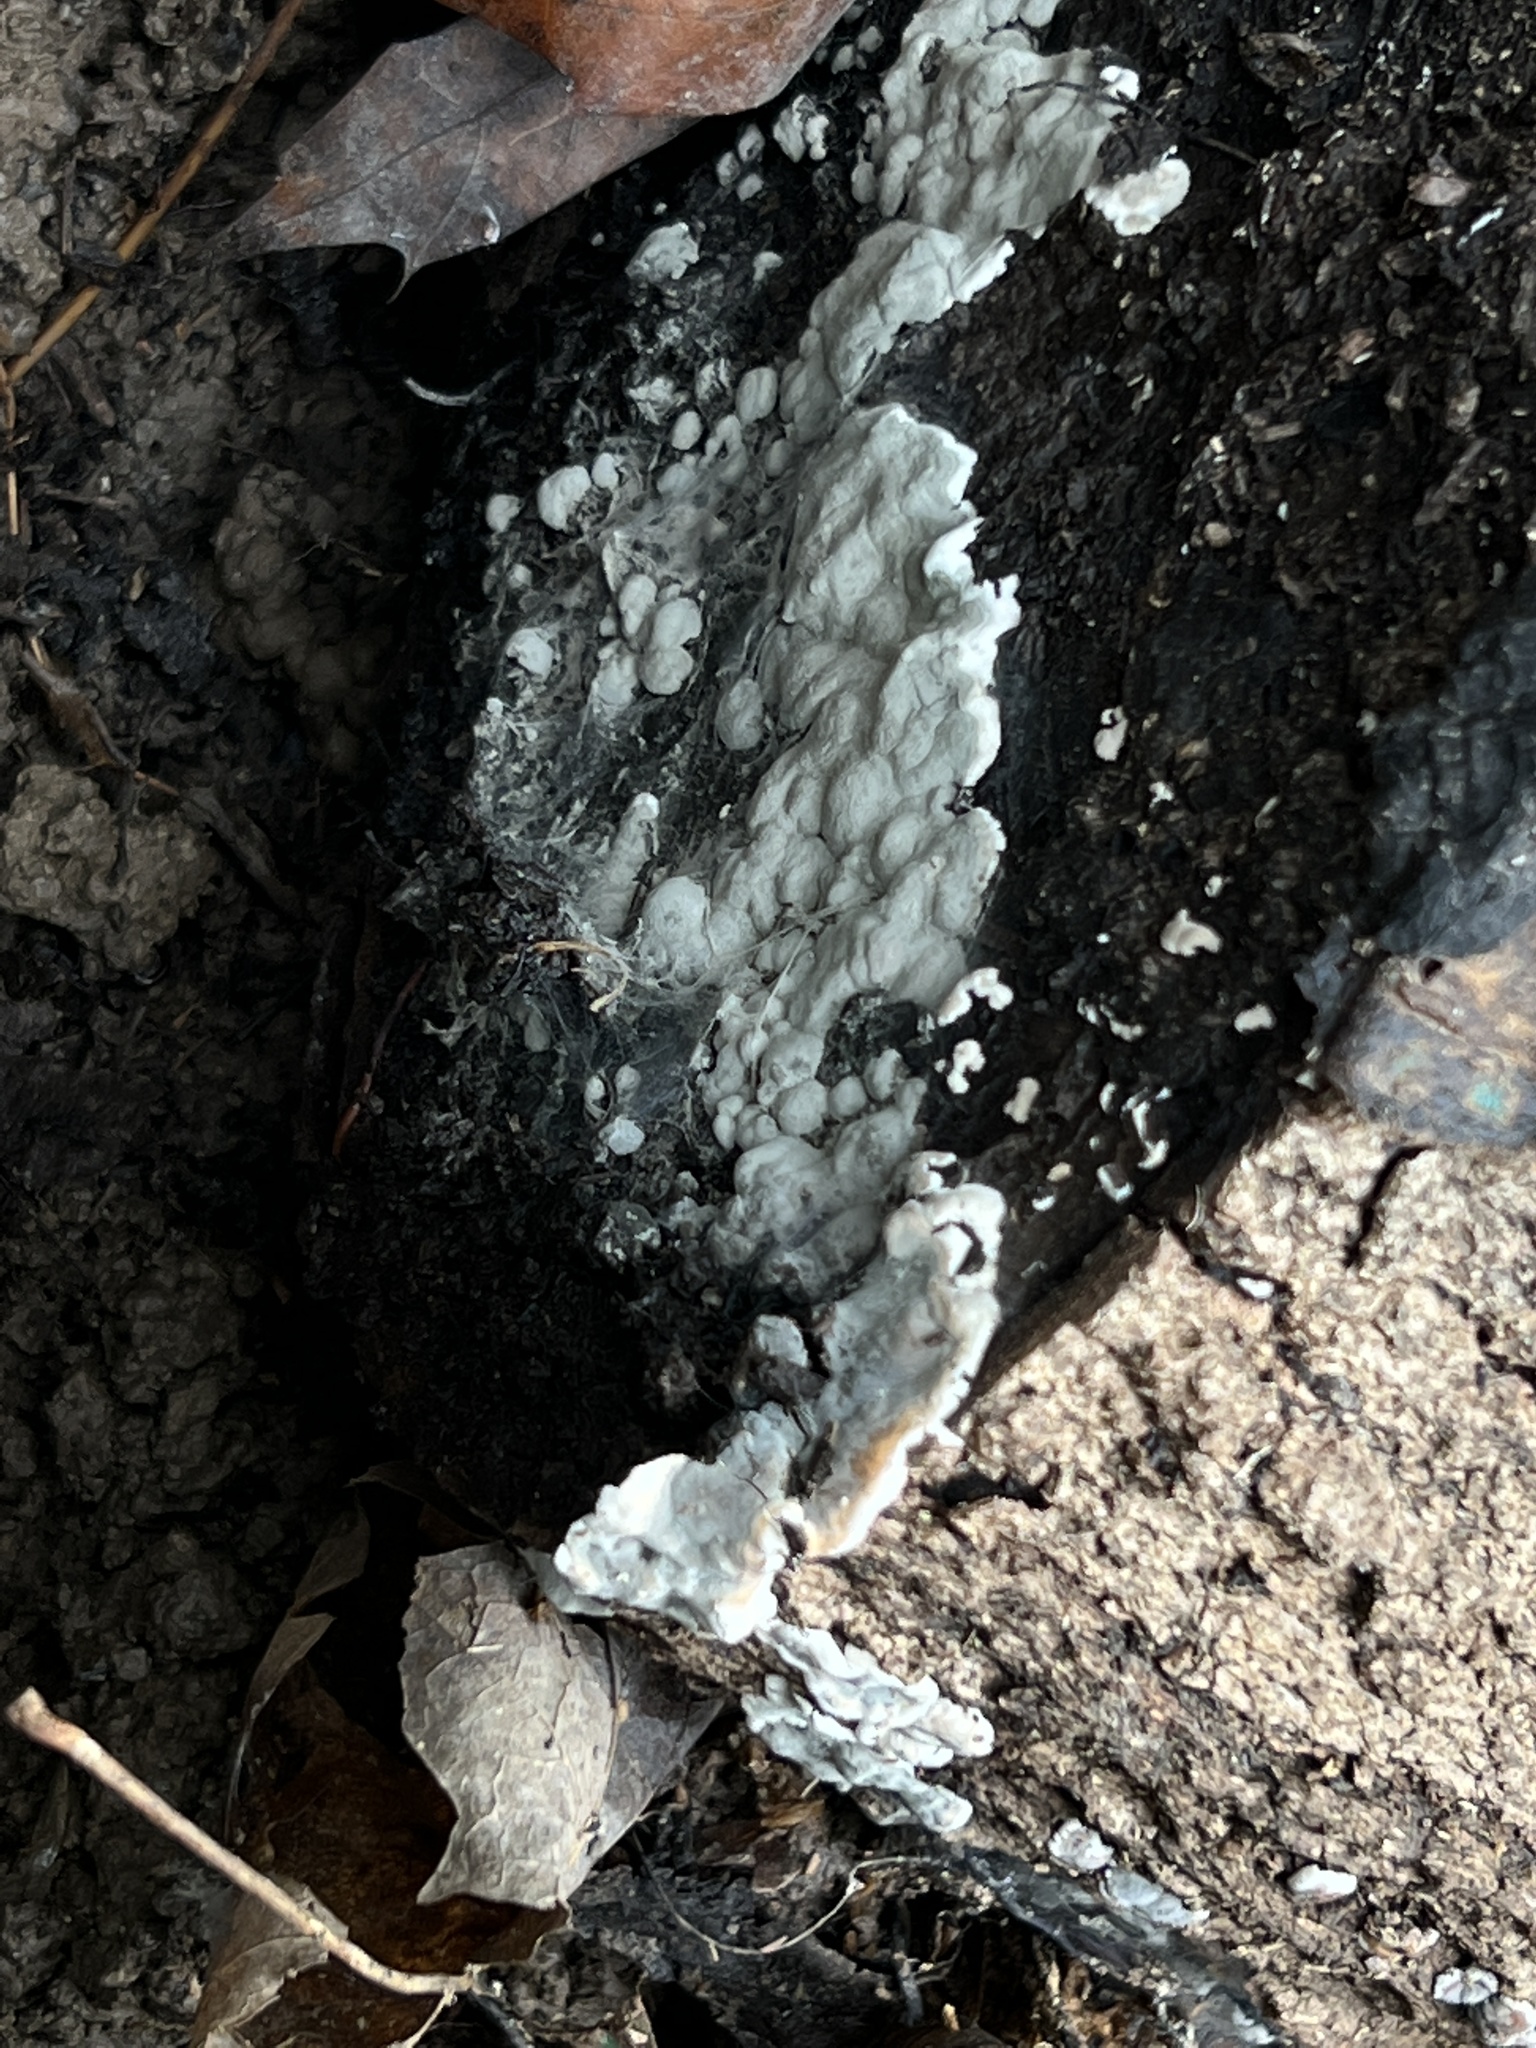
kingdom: Fungi
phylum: Ascomycota
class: Sordariomycetes
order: Xylariales
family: Xylariaceae
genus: Kretzschmaria
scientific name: Kretzschmaria hedjaroudei
